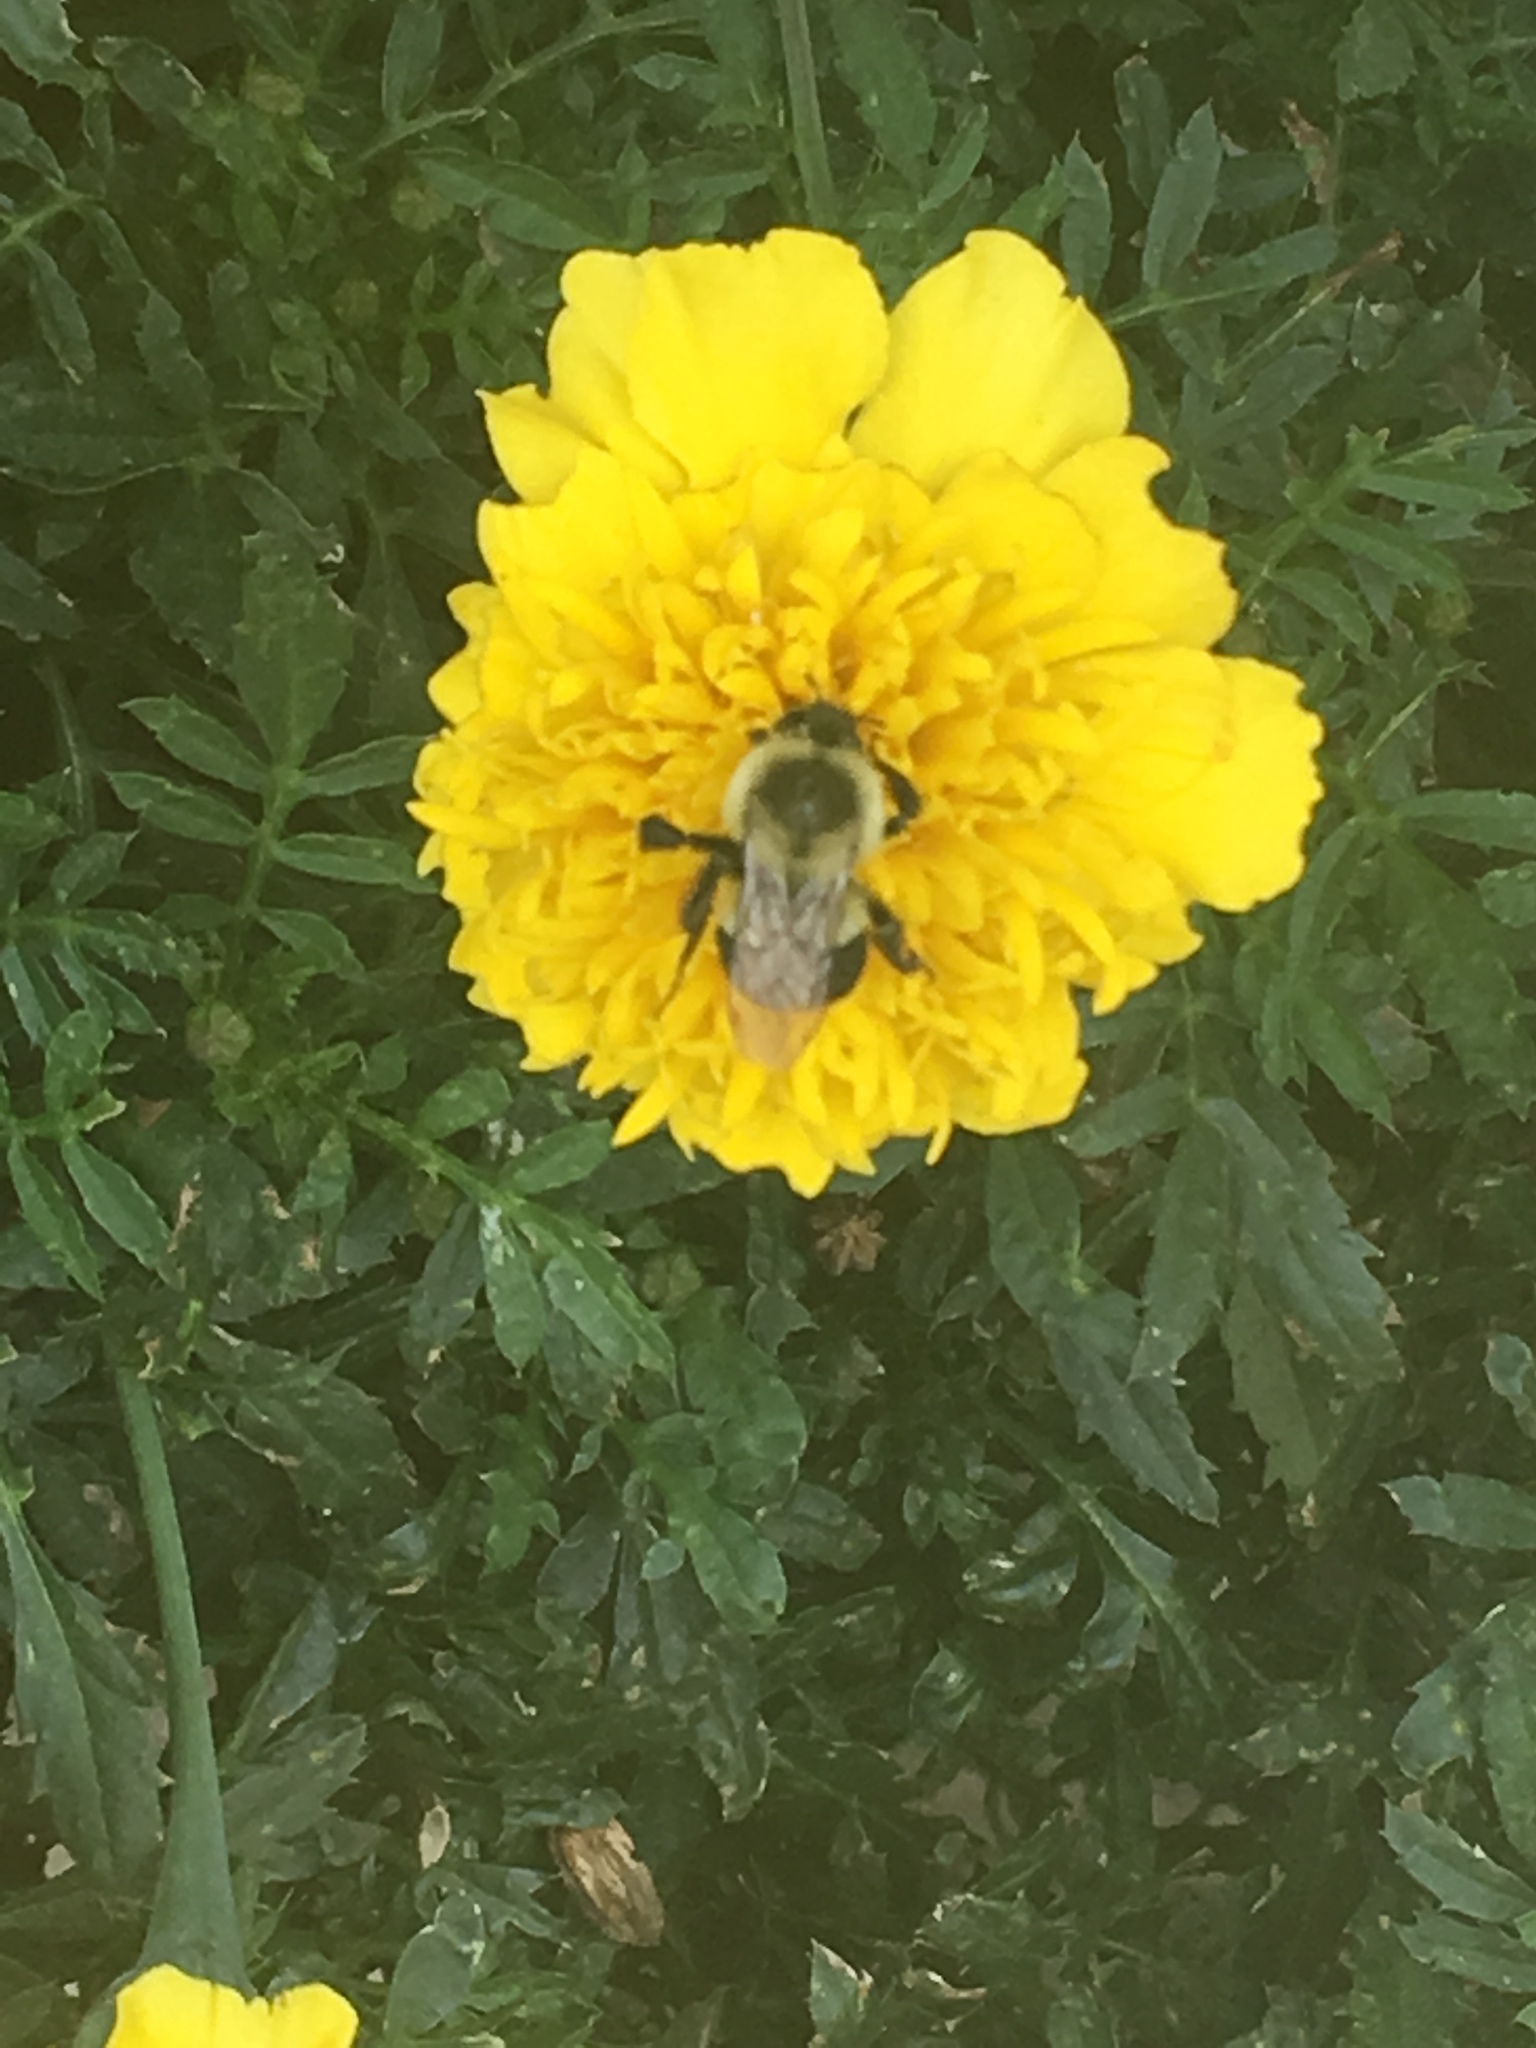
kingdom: Animalia
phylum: Arthropoda
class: Insecta
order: Hymenoptera
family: Apidae
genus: Bombus
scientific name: Bombus impatiens
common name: Common eastern bumble bee
